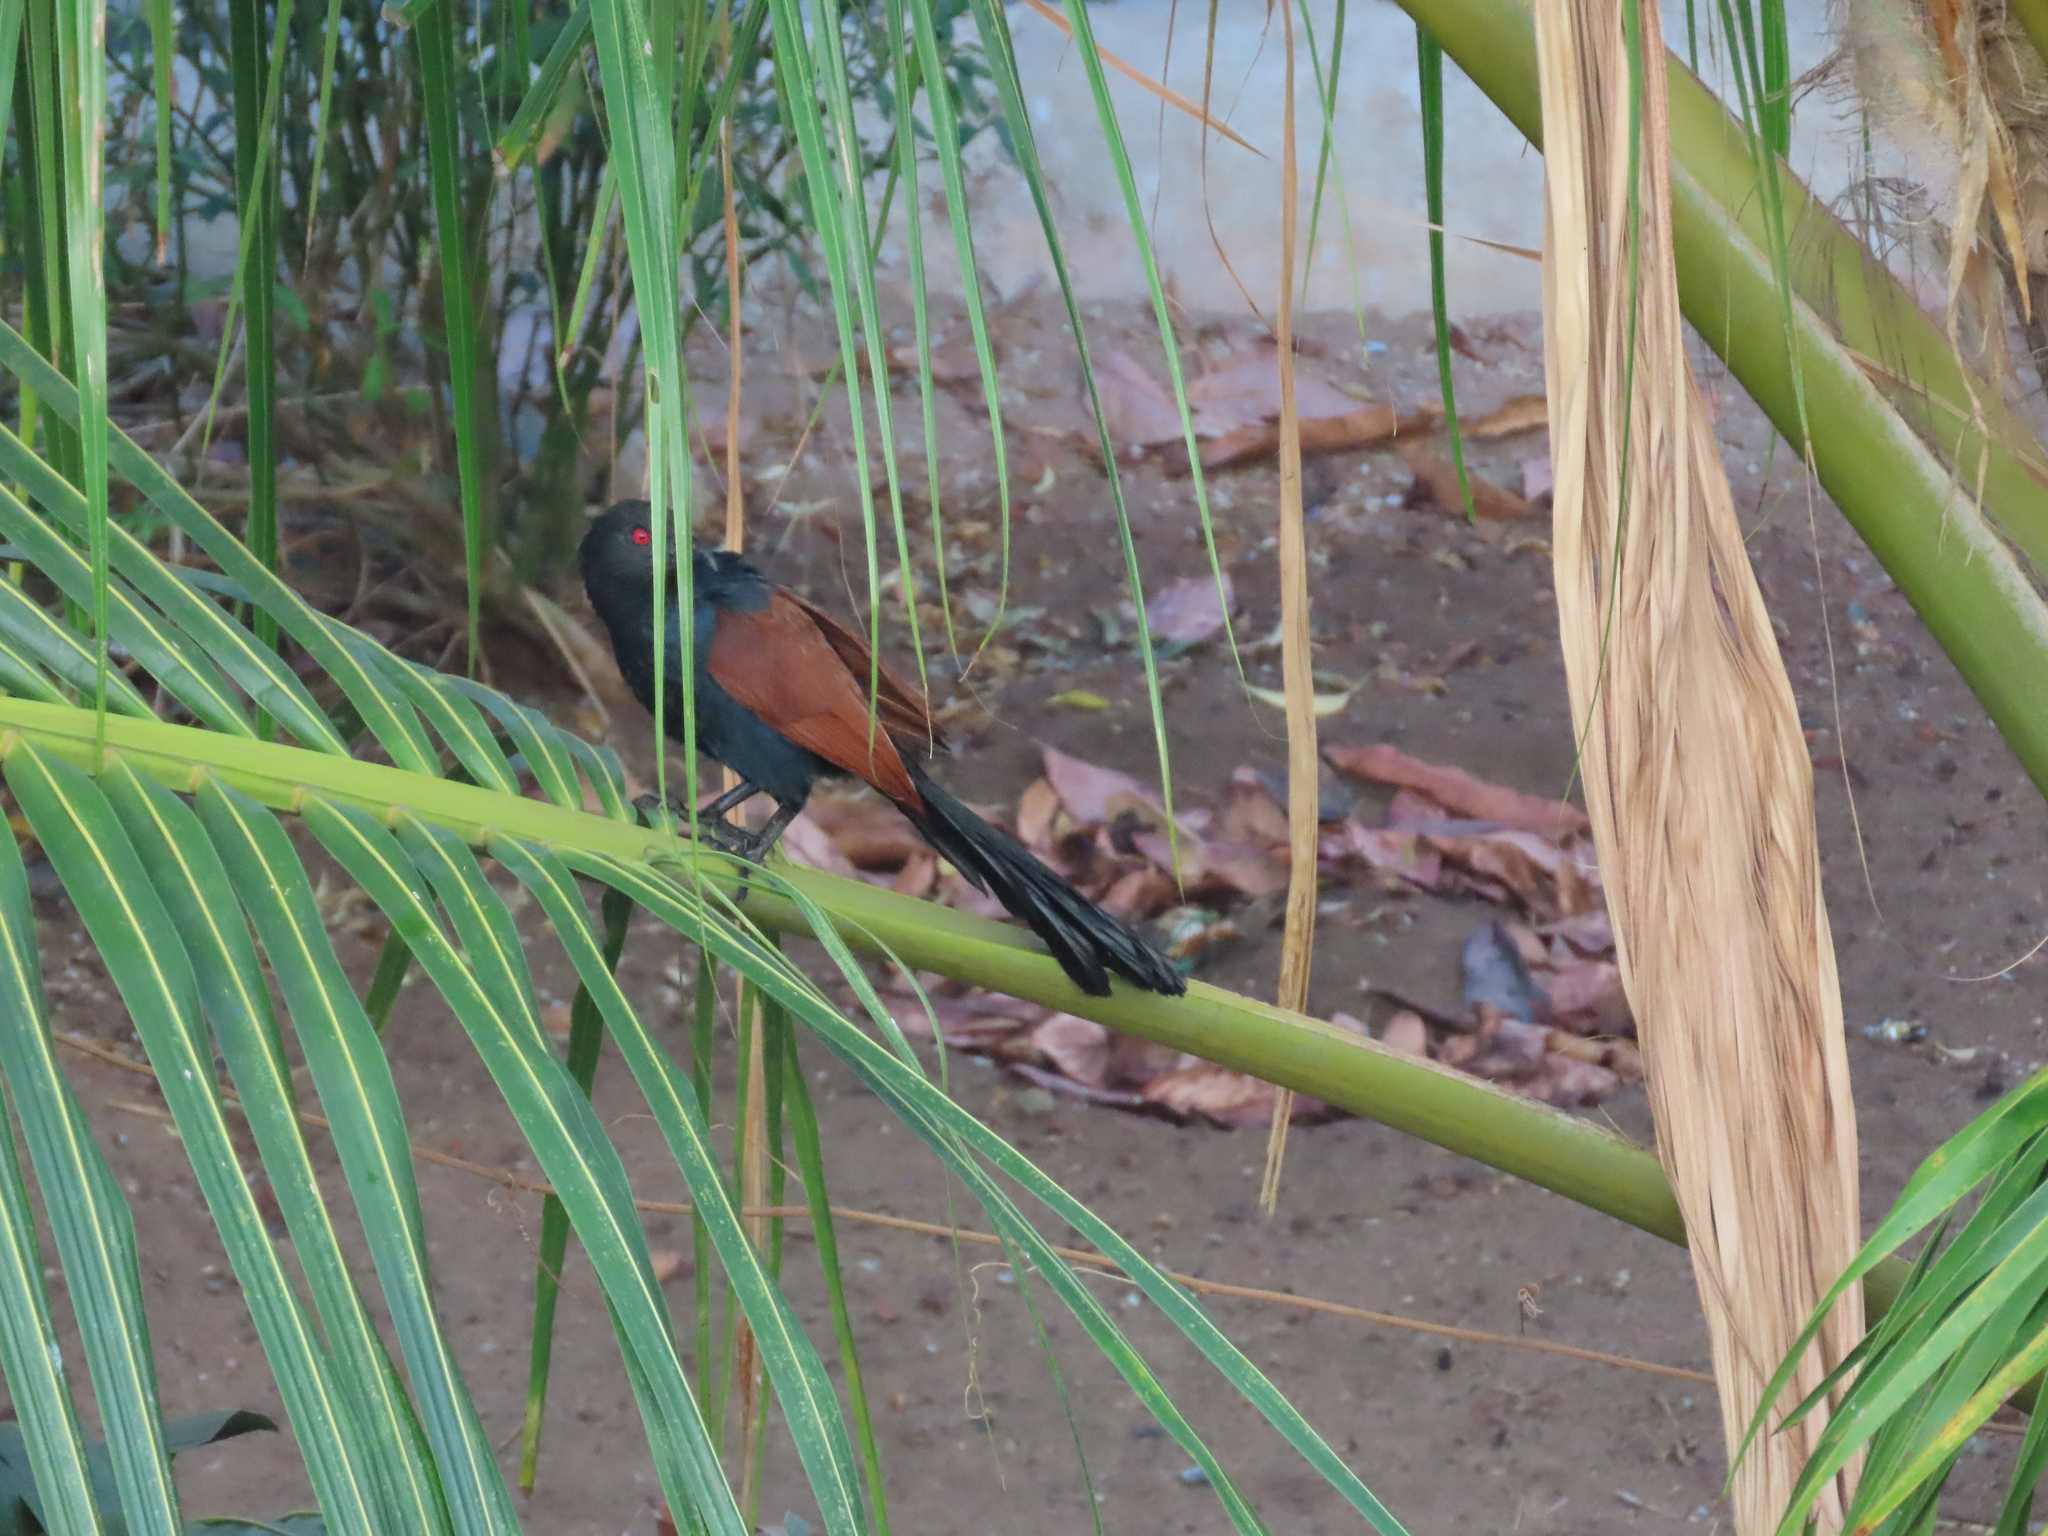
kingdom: Animalia
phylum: Chordata
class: Aves
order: Cuculiformes
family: Cuculidae
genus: Centropus
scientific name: Centropus sinensis
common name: Greater coucal
